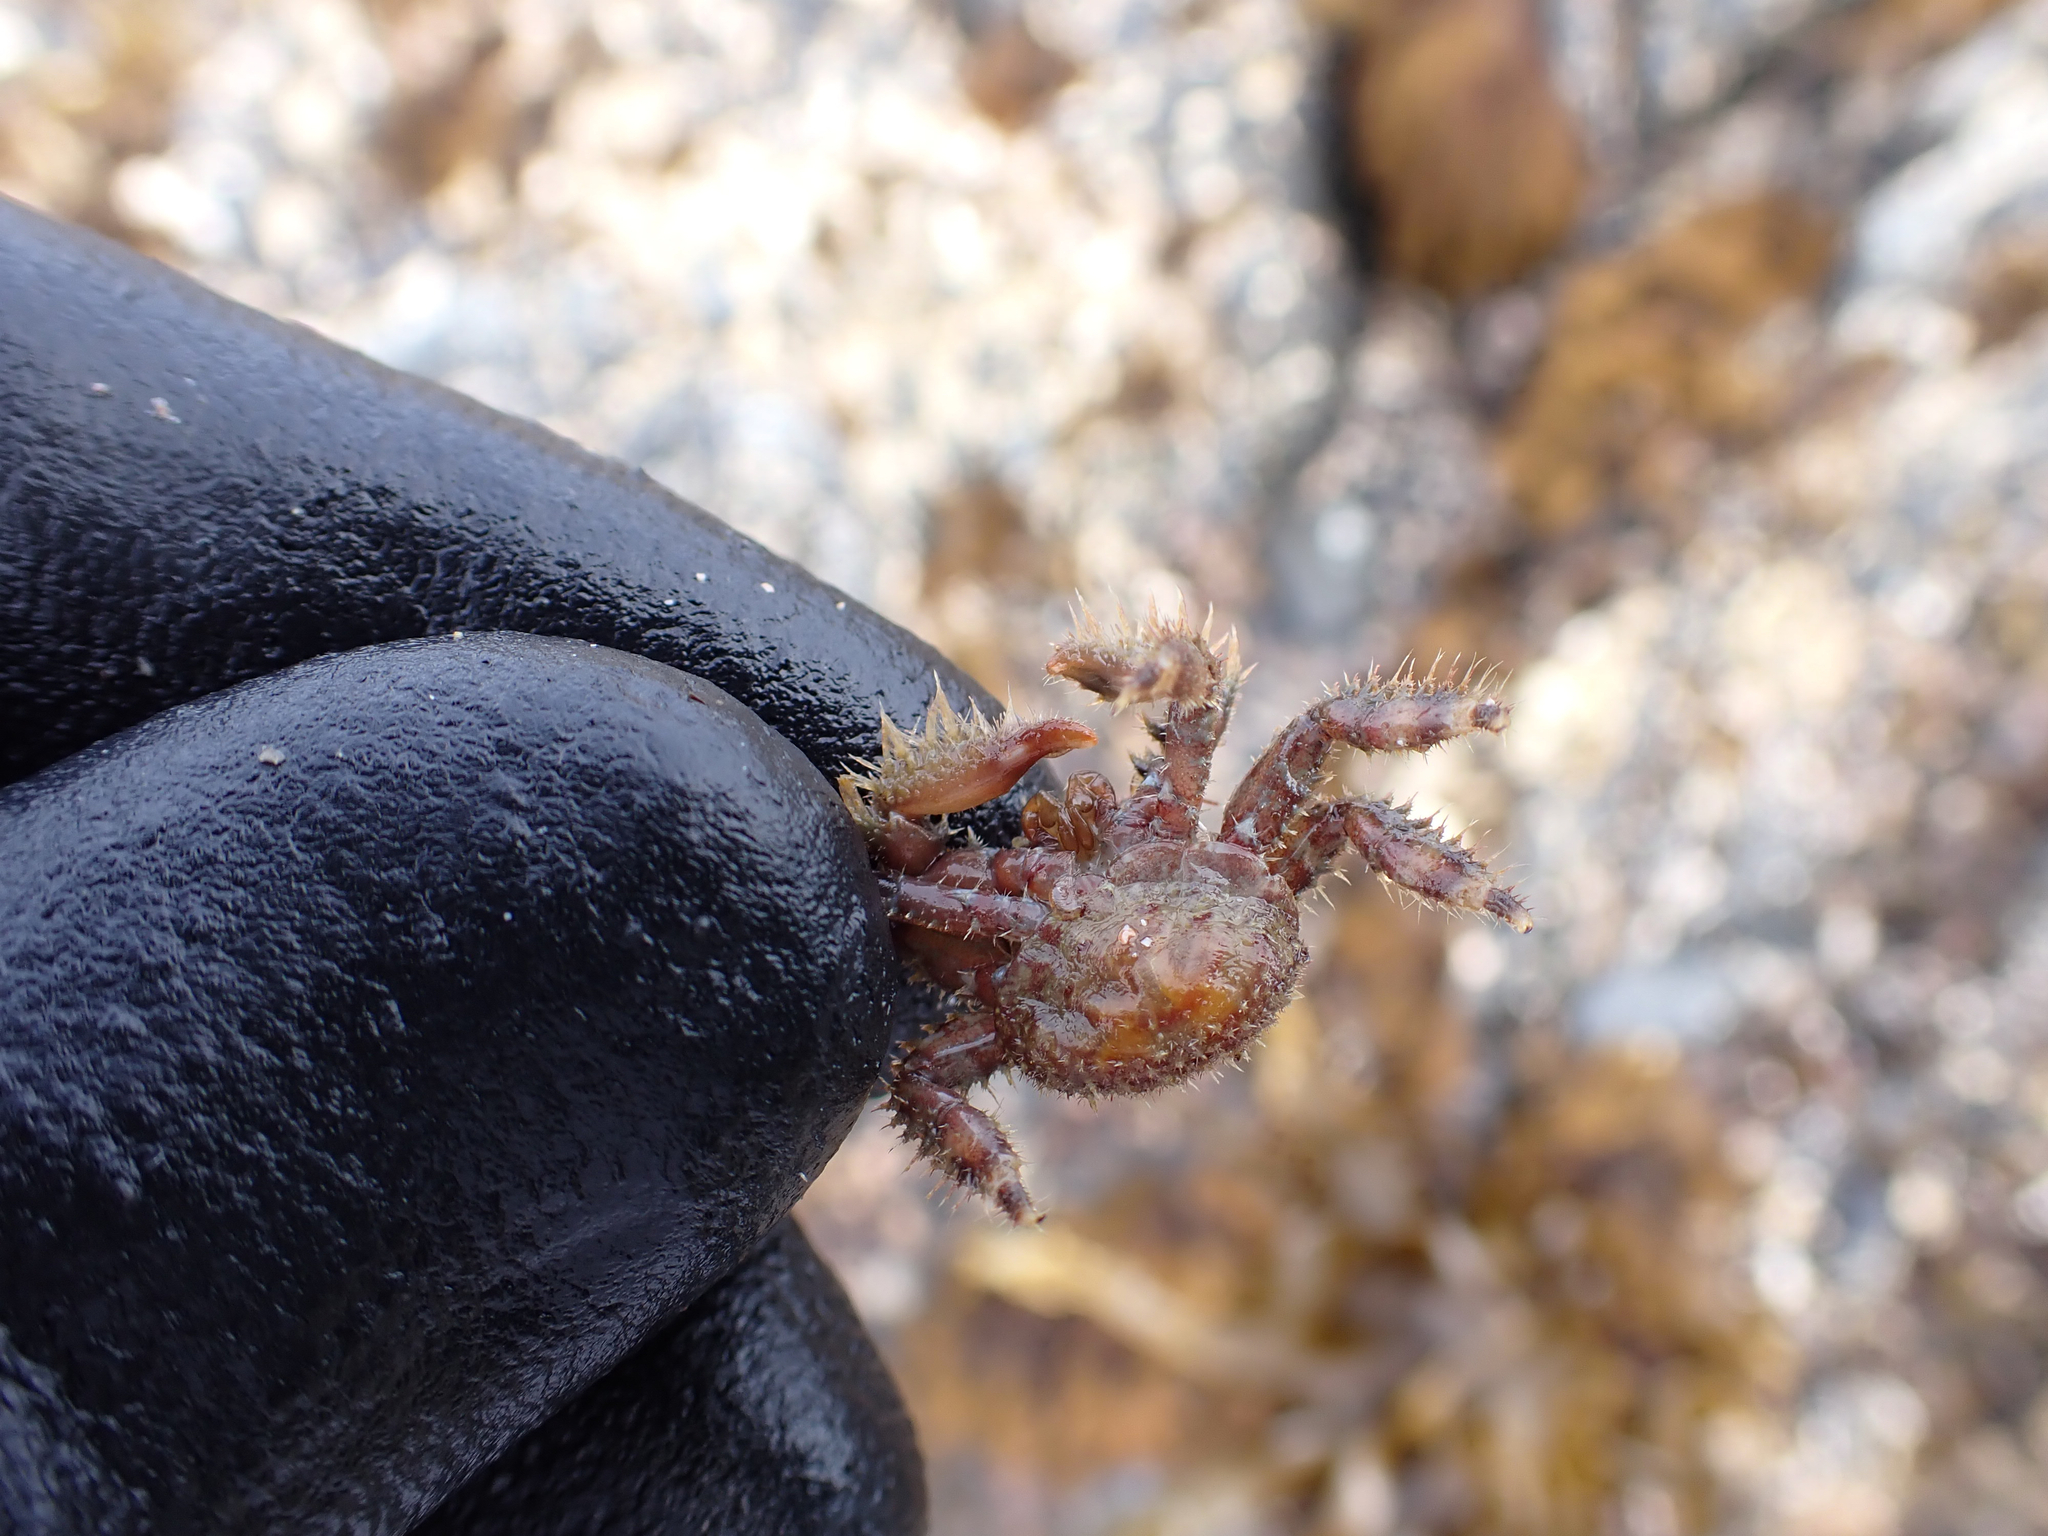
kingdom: Animalia
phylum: Arthropoda
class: Malacostraca
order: Decapoda
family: Hapalogastridae
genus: Hapalogaster
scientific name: Hapalogaster mertensii
